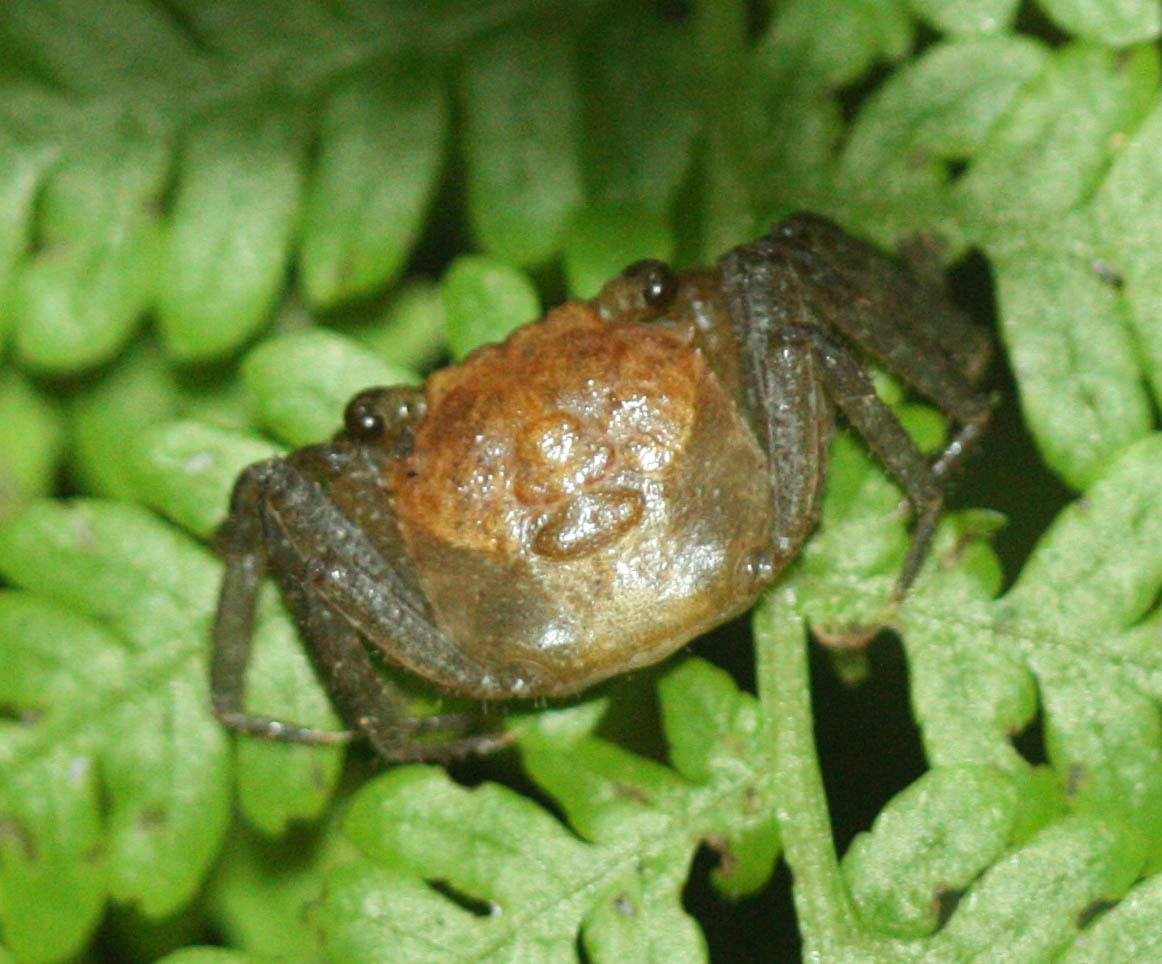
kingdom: Animalia
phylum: Arthropoda
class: Malacostraca
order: Decapoda
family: Sesarmidae
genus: Geosesarma
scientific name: Geosesarma faustum
